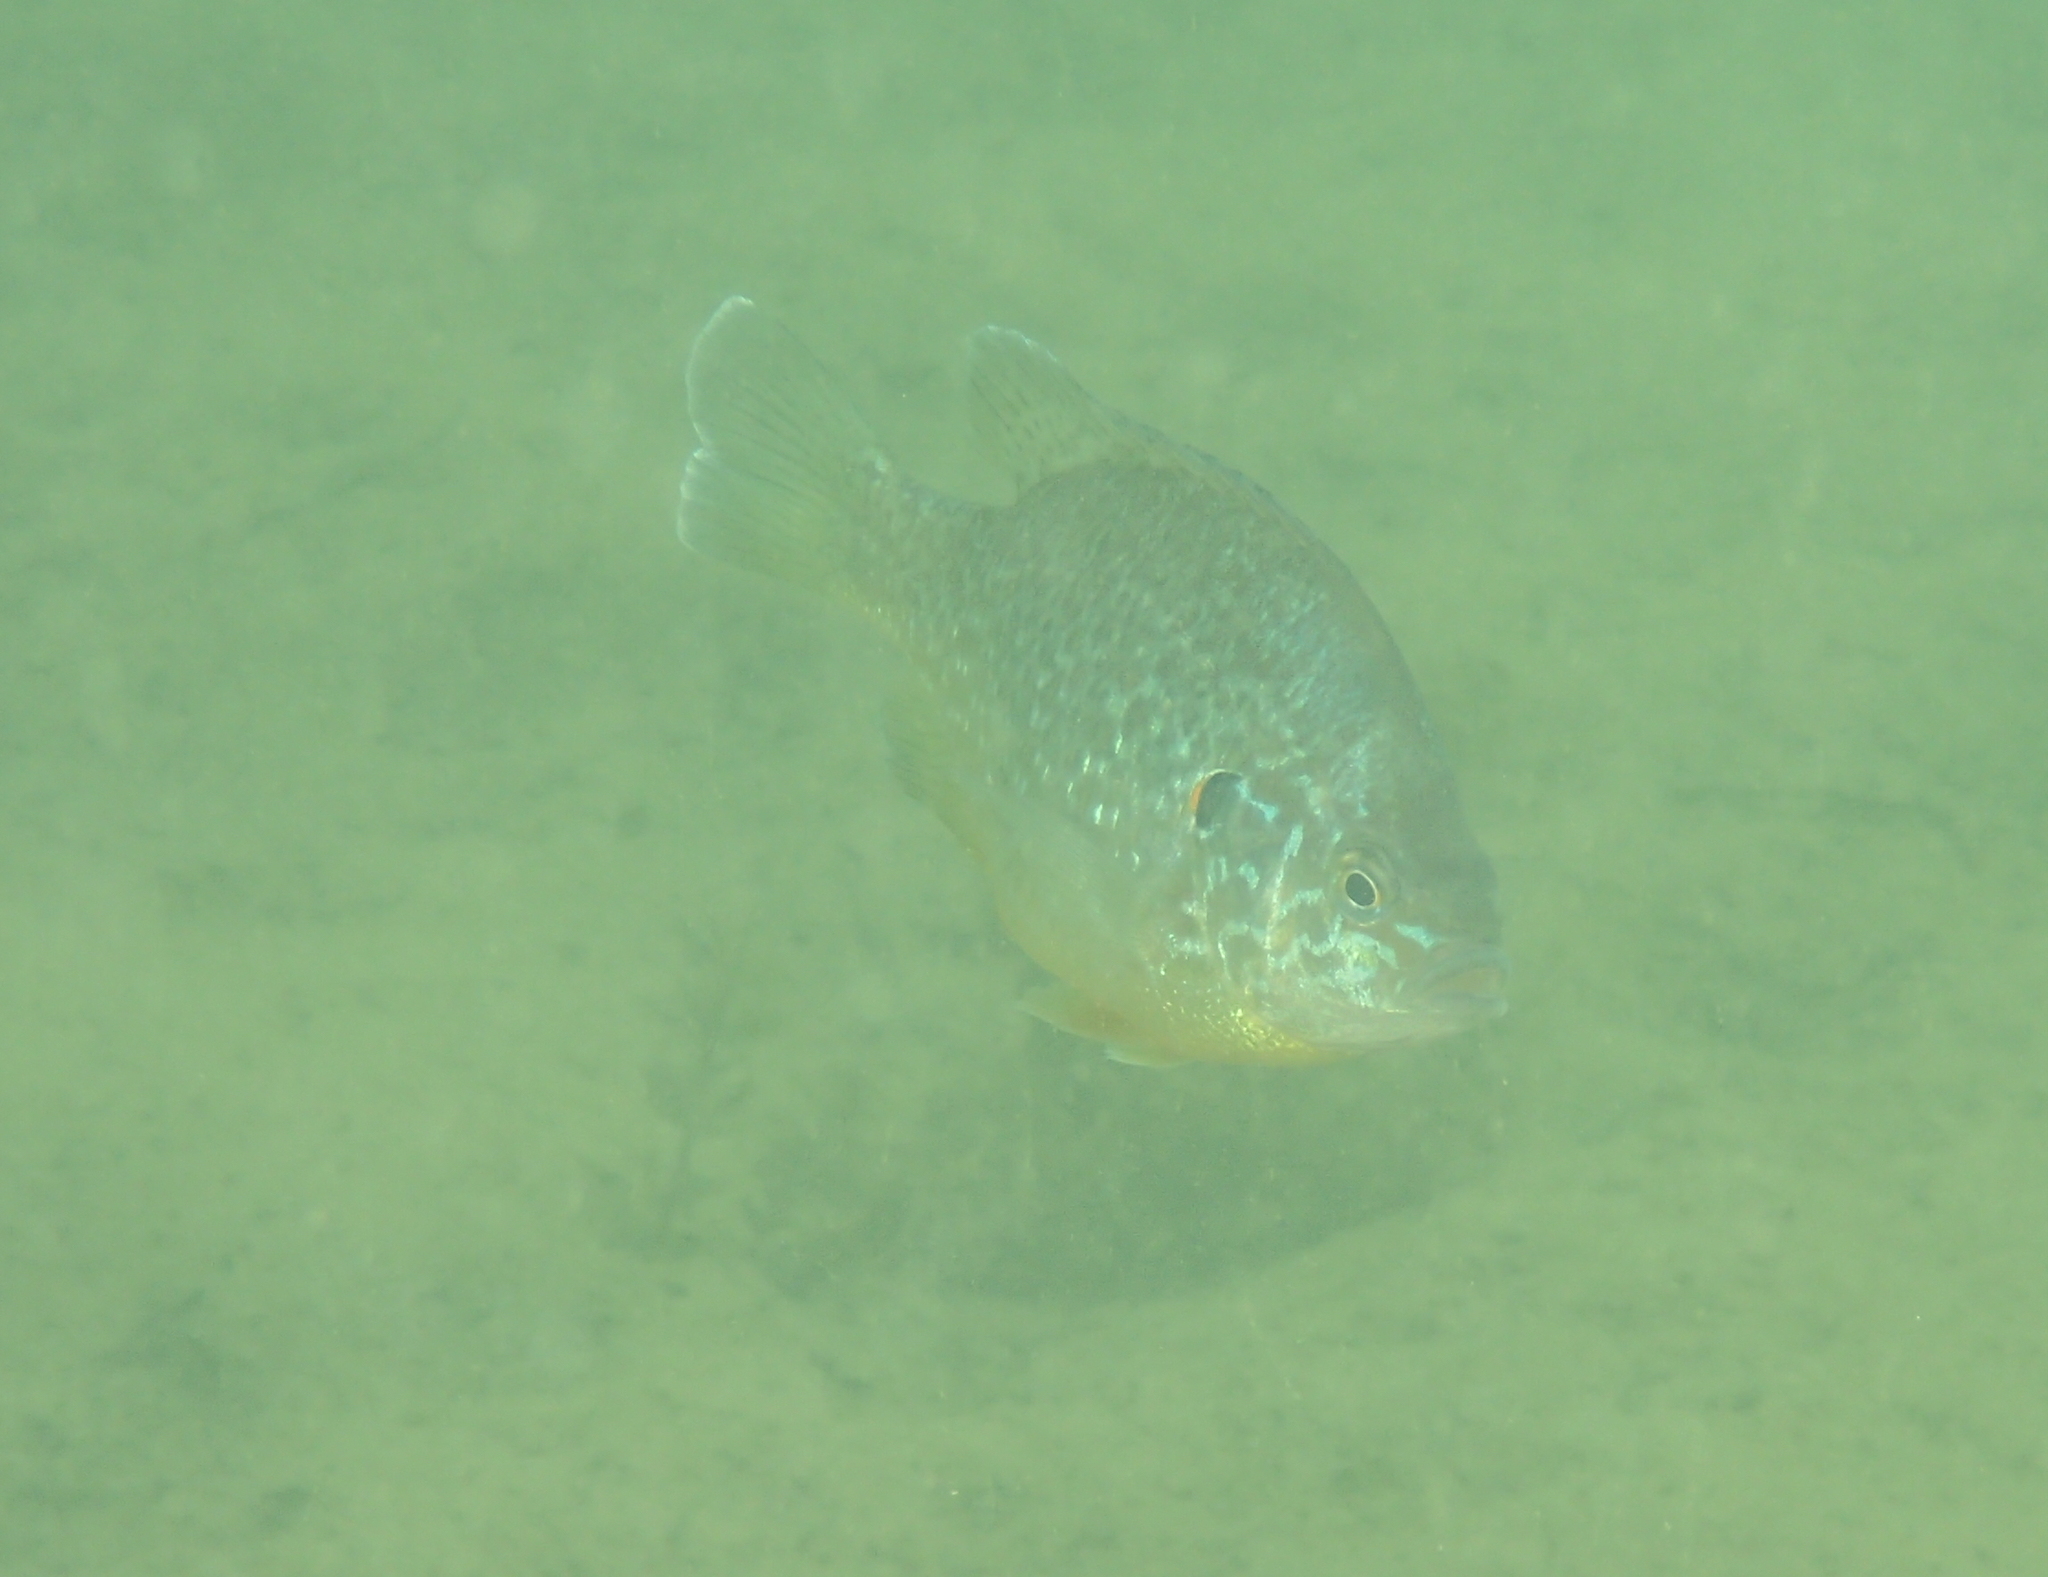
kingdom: Animalia
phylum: Chordata
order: Perciformes
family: Centrarchidae
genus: Lepomis
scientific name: Lepomis gibbosus
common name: Pumpkinseed
